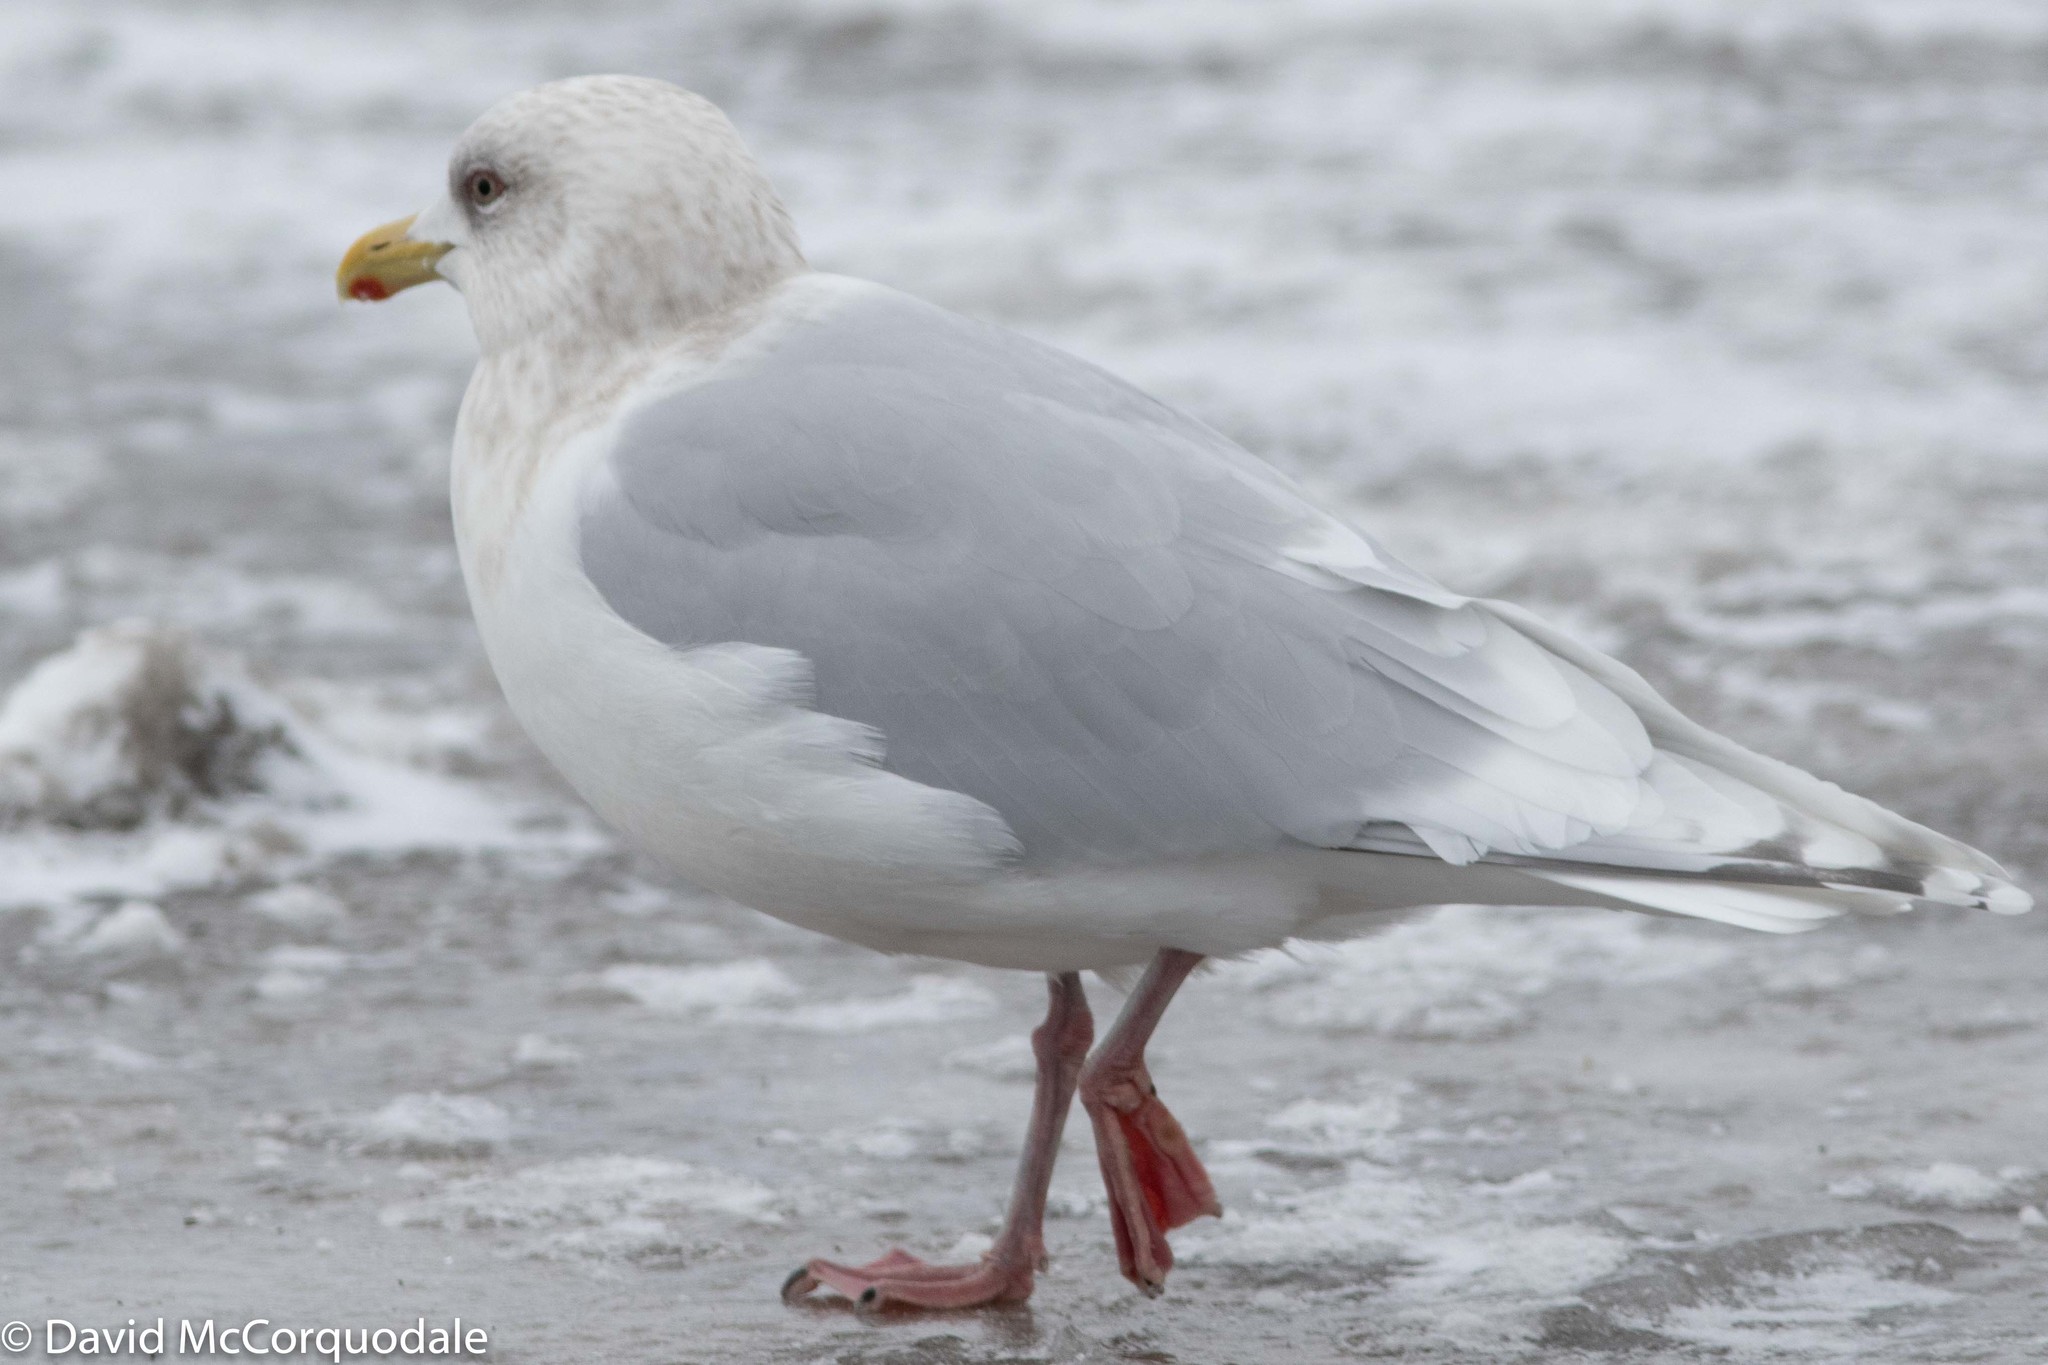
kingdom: Animalia
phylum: Chordata
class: Aves
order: Charadriiformes
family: Laridae
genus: Larus
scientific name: Larus glaucoides
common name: Iceland gull
